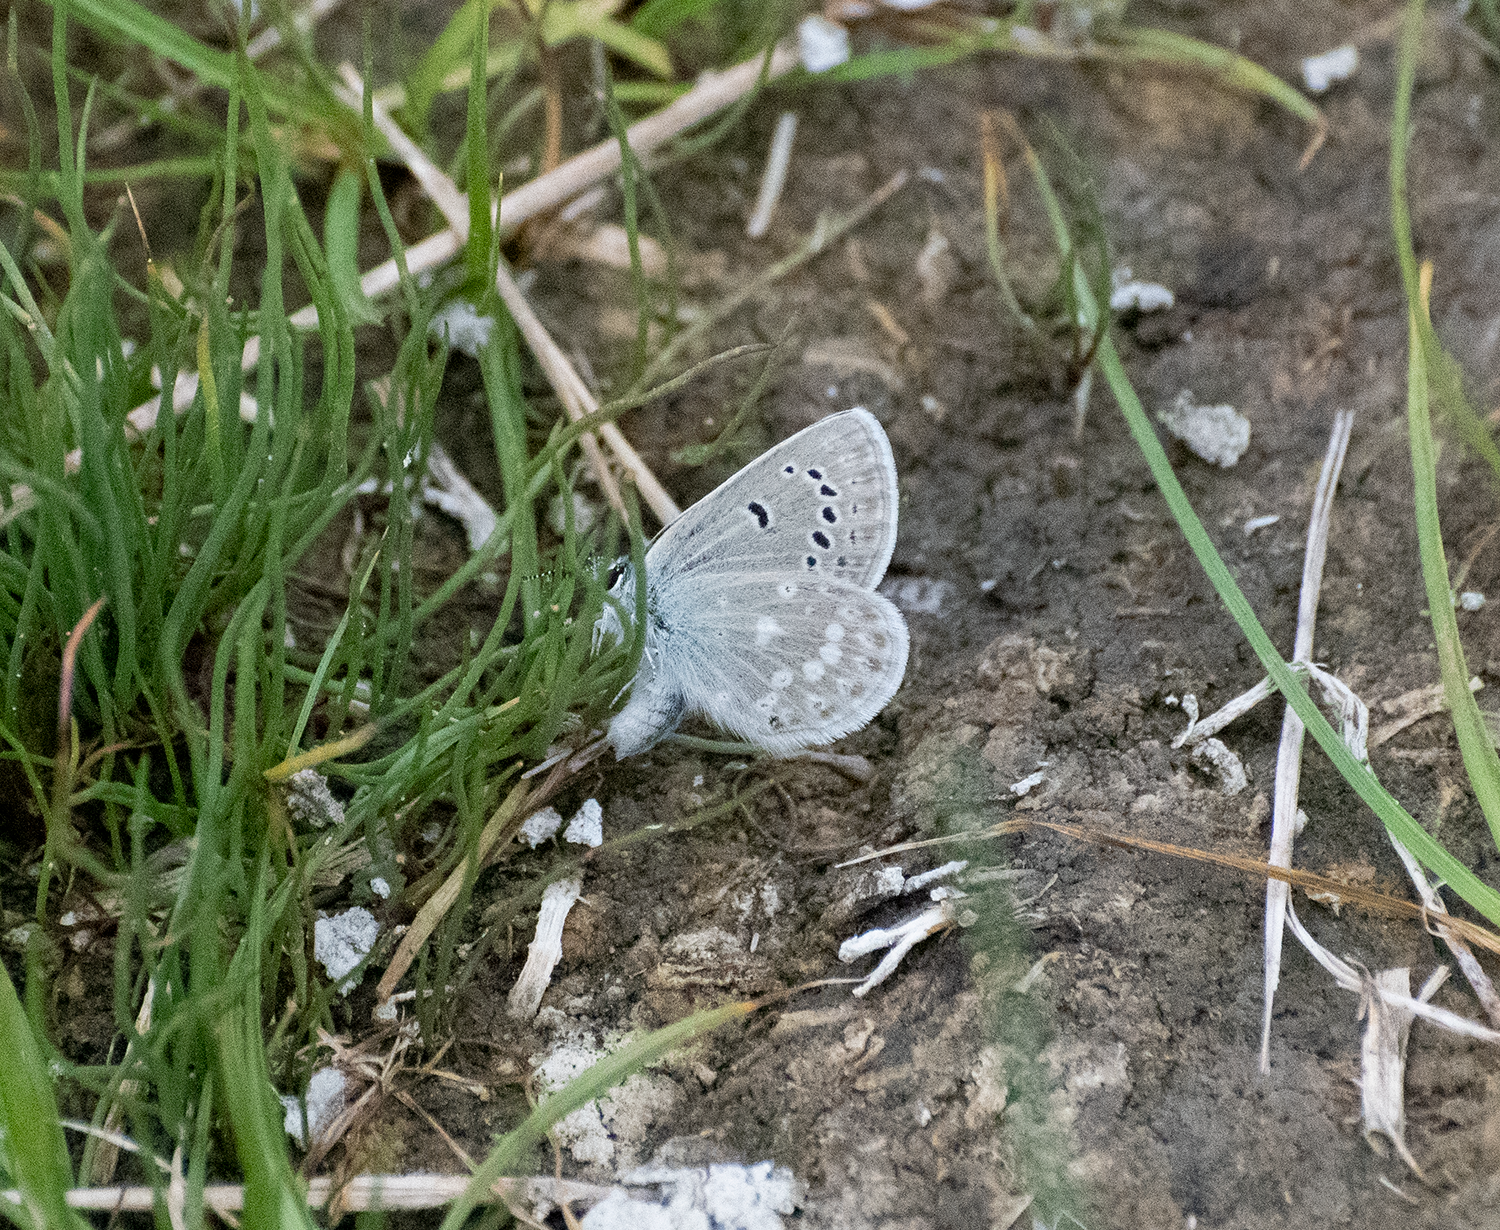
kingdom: Animalia
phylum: Arthropoda
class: Insecta
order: Lepidoptera
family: Lycaenidae
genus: Icaricia
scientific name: Icaricia icarioides
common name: Boisduval's blue
